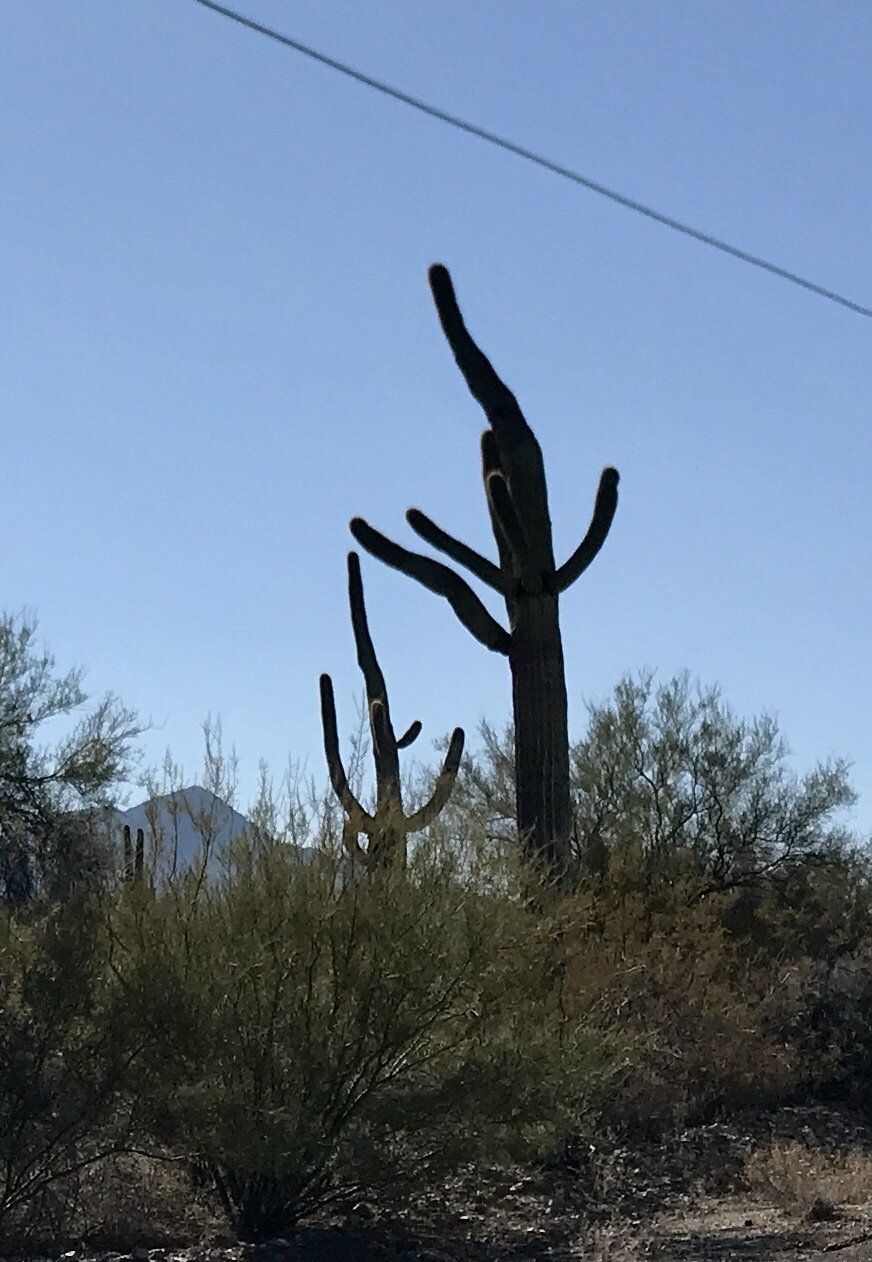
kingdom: Plantae
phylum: Tracheophyta
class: Magnoliopsida
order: Caryophyllales
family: Cactaceae
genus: Carnegiea
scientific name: Carnegiea gigantea
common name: Saguaro
